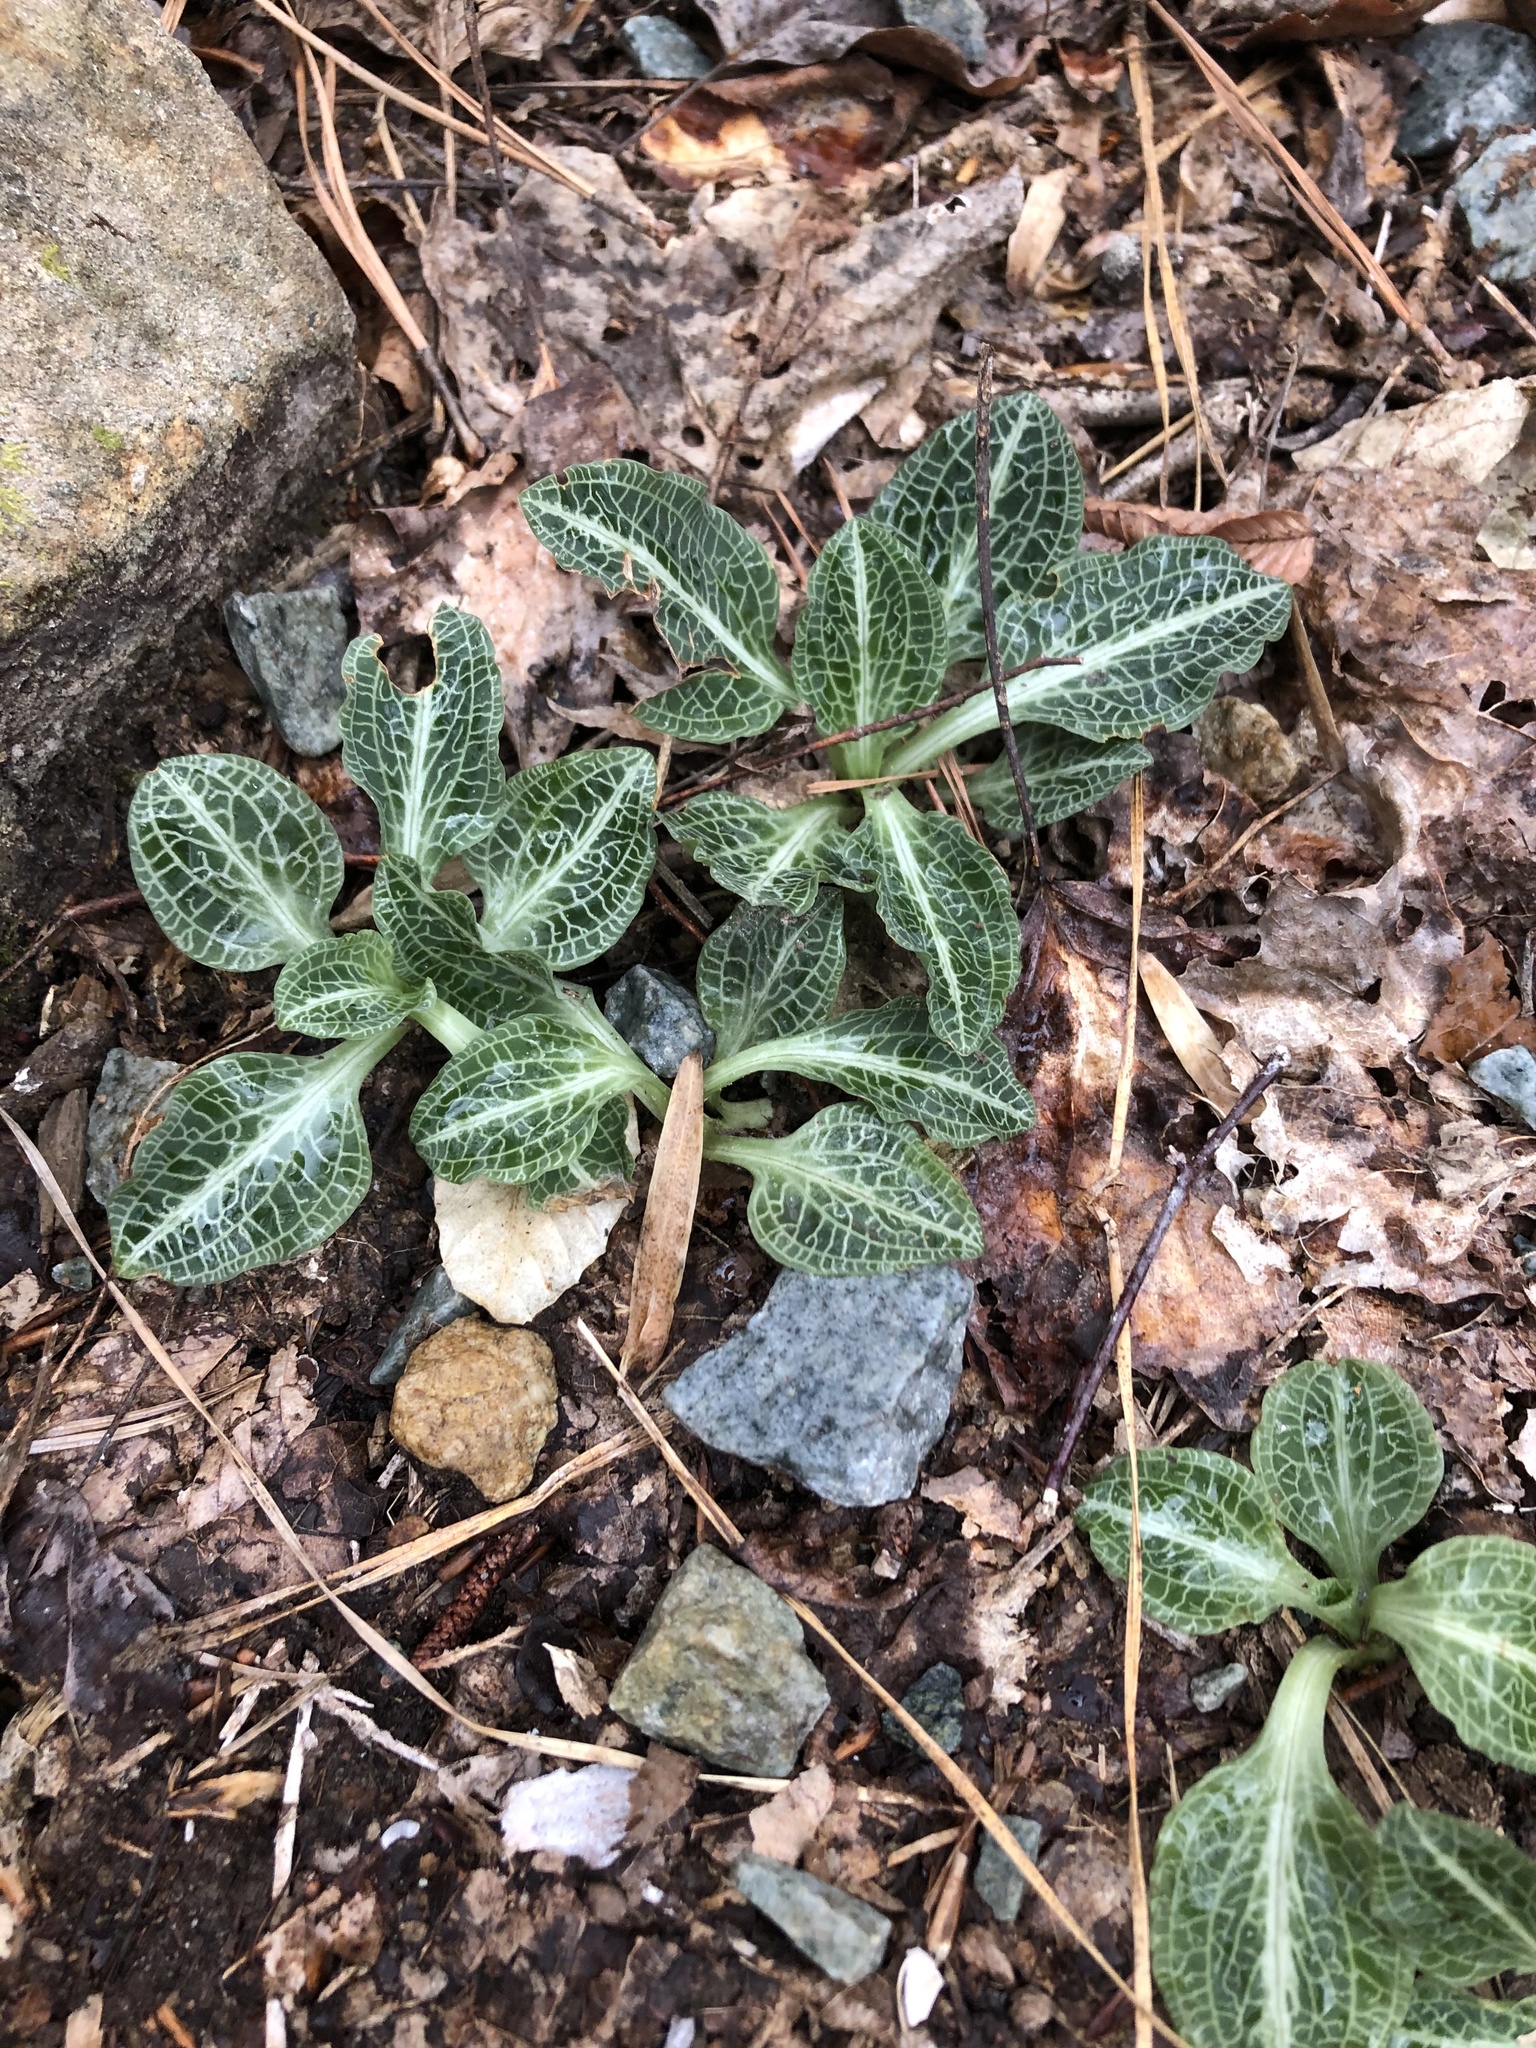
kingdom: Plantae
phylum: Tracheophyta
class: Liliopsida
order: Asparagales
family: Orchidaceae
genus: Goodyera
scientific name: Goodyera pubescens
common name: Downy rattlesnake-plantain
